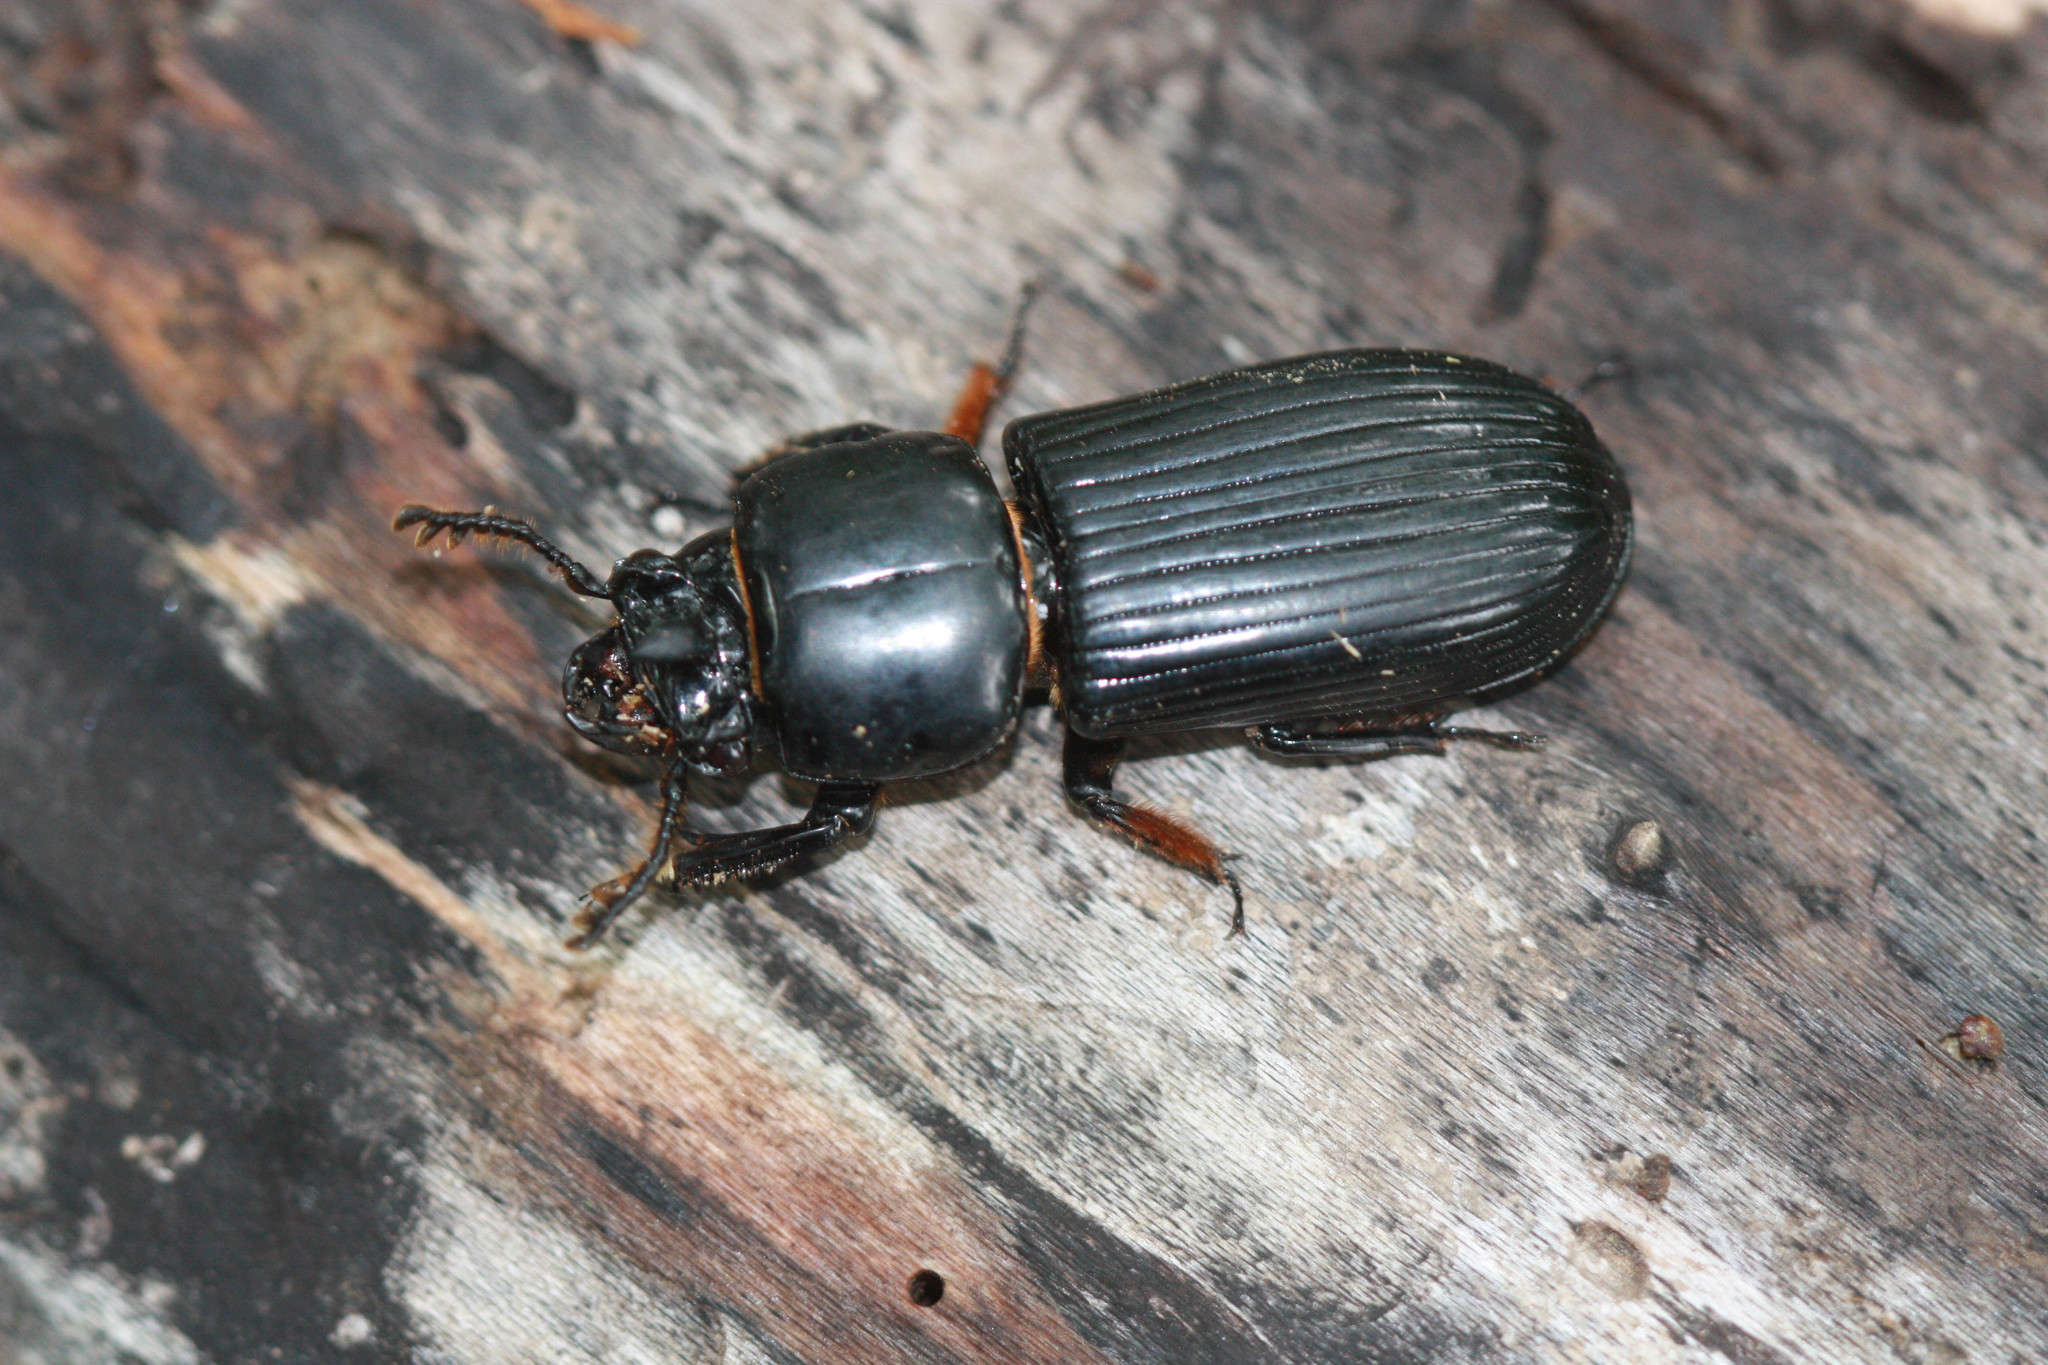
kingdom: Animalia
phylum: Arthropoda
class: Insecta
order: Coleoptera
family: Passalidae
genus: Odontotaenius
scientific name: Odontotaenius disjunctus
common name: Patent leather beetle
